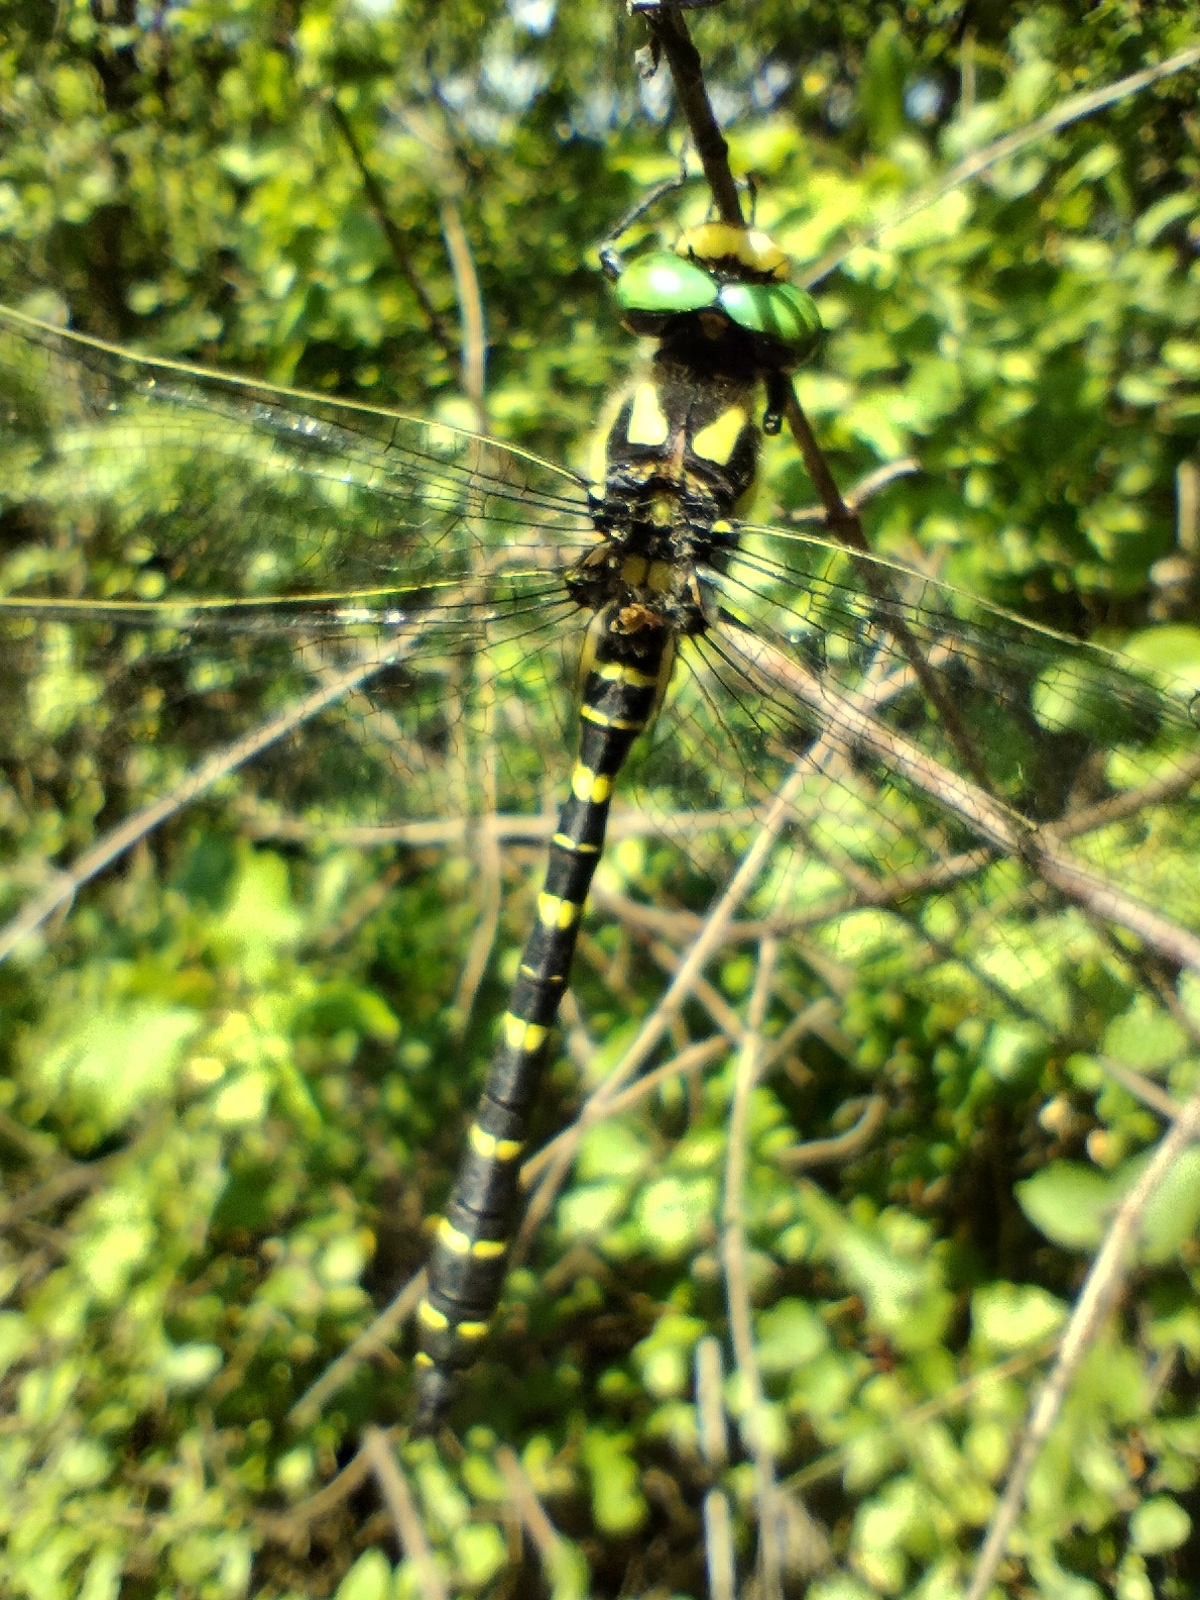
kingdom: Animalia
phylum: Arthropoda
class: Insecta
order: Odonata
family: Cordulegastridae
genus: Cordulegaster
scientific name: Cordulegaster bidentata
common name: Sombre goldenring
